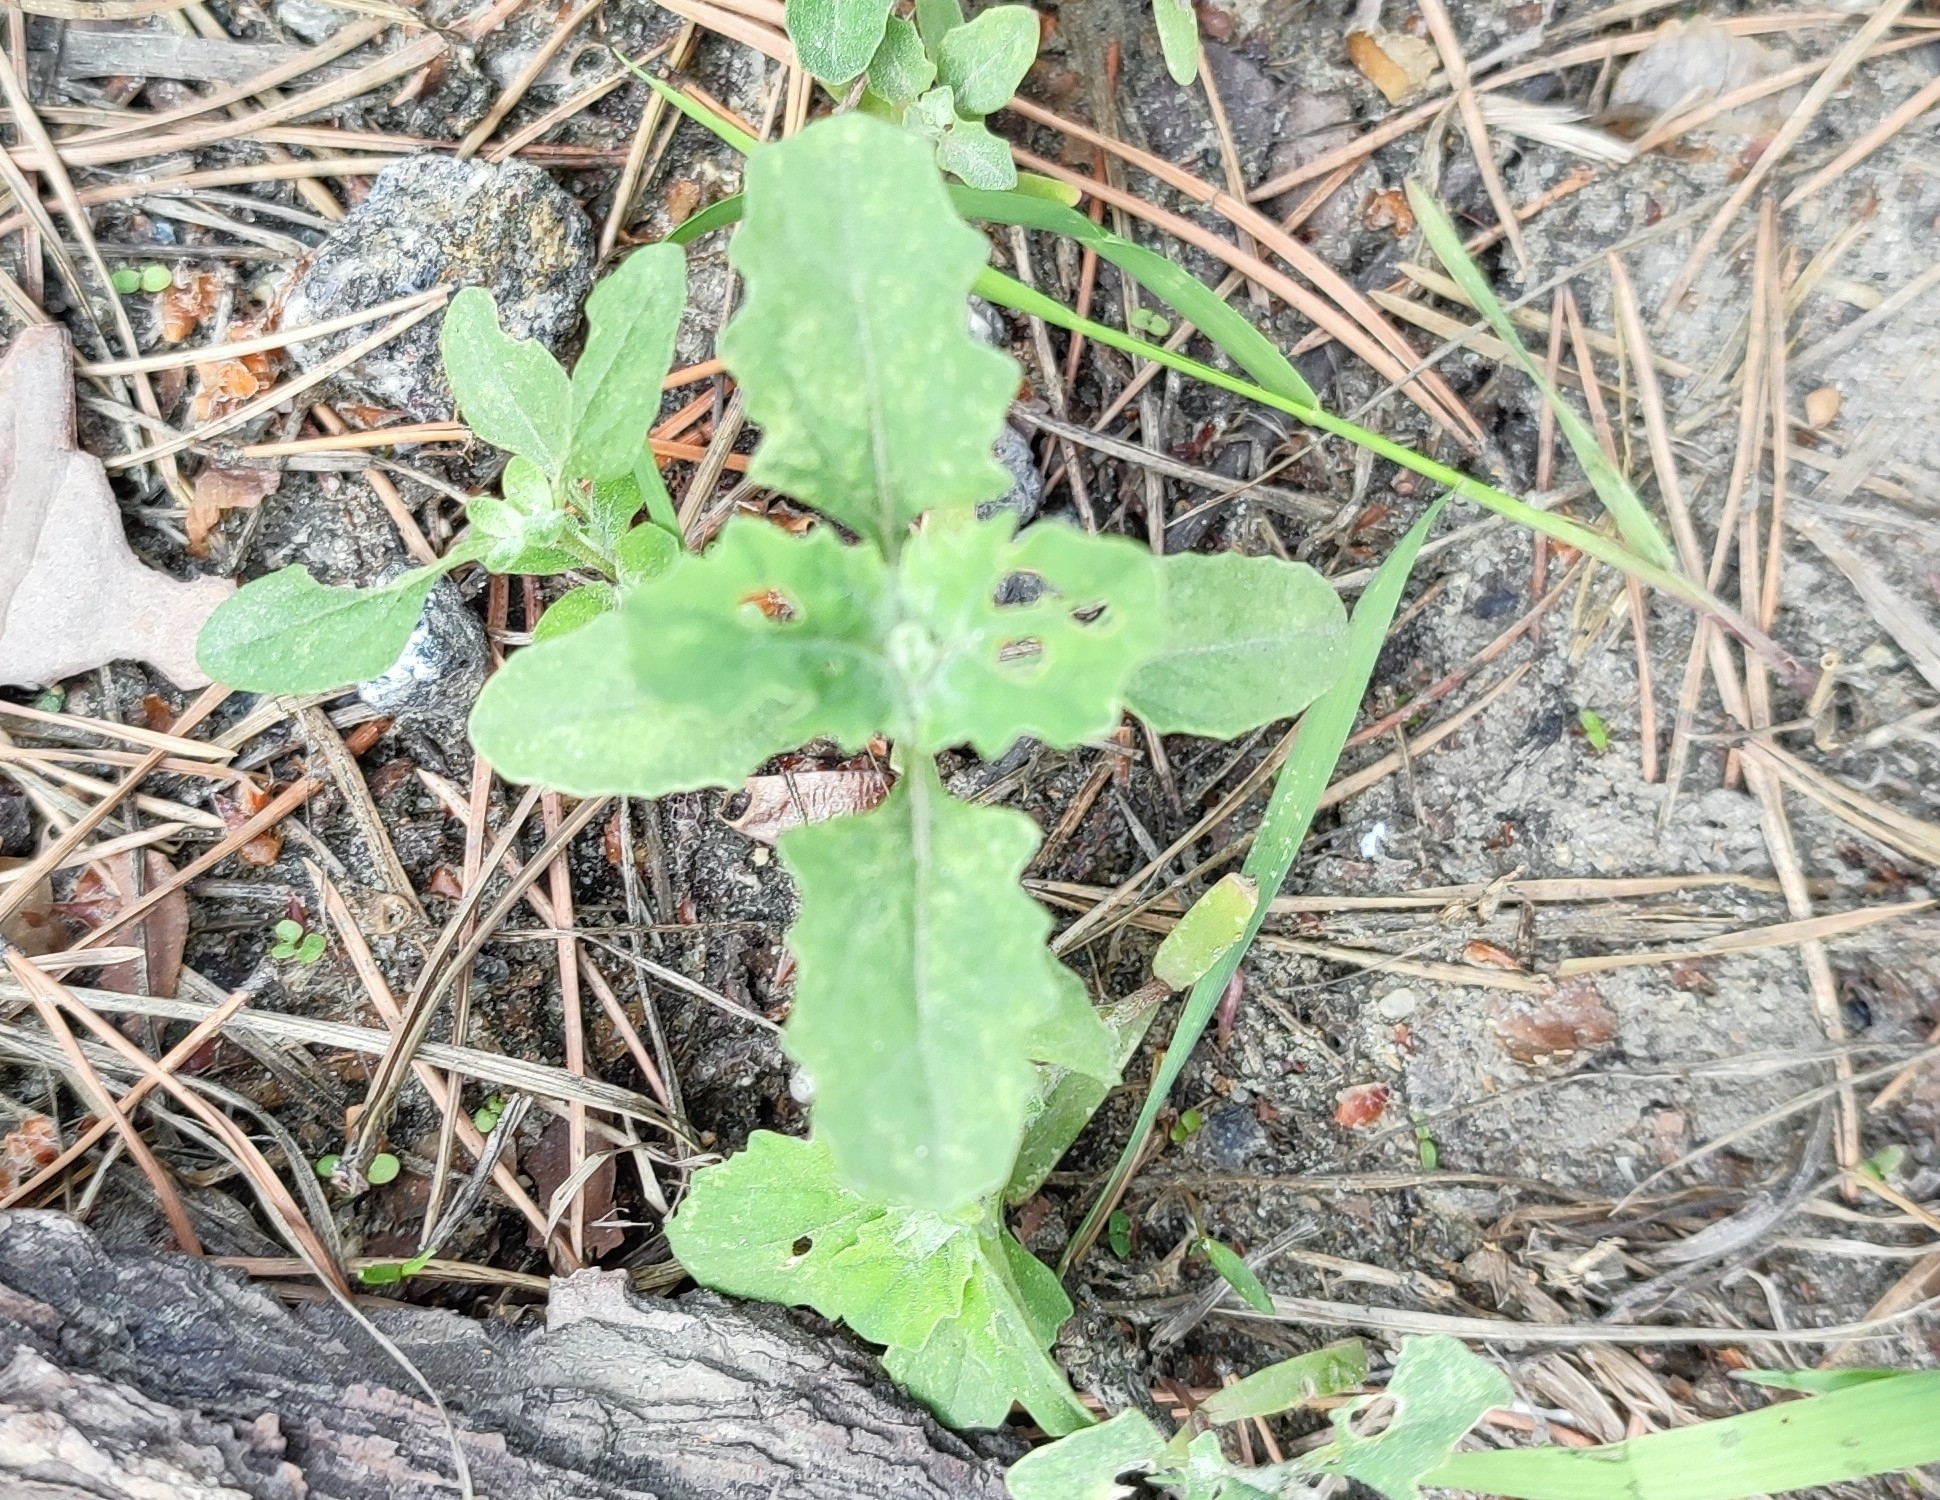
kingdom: Plantae
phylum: Tracheophyta
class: Magnoliopsida
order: Caryophyllales
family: Amaranthaceae
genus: Atriplex
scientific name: Atriplex tatarica
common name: Tatarian orache
